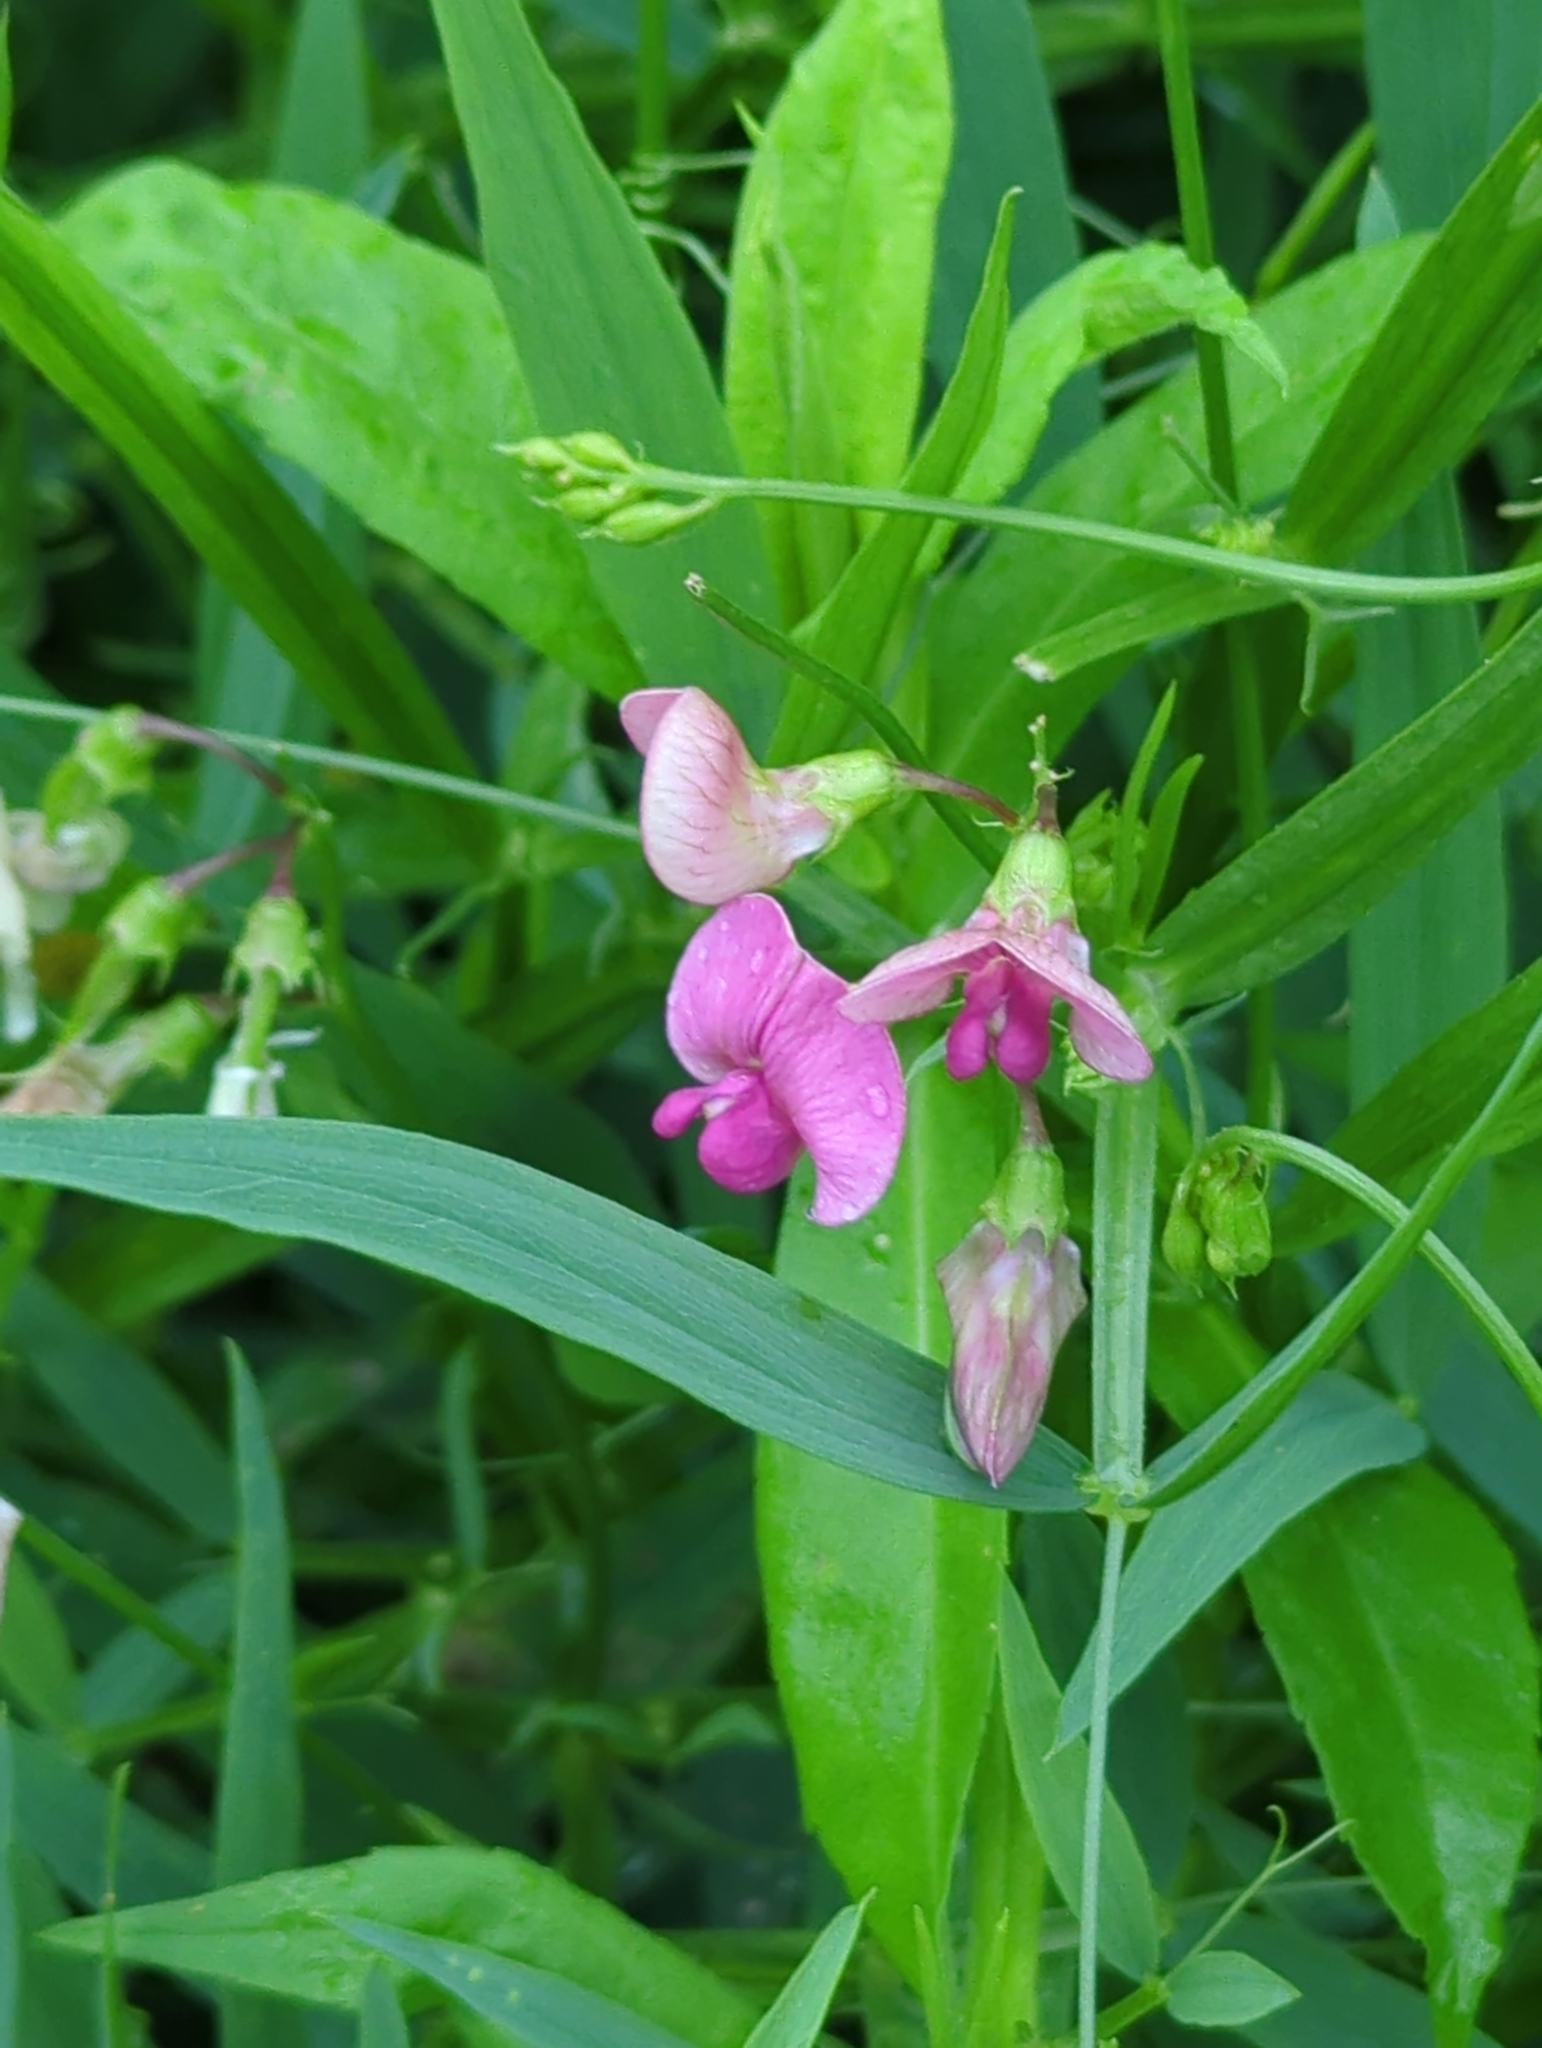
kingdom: Plantae
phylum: Tracheophyta
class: Magnoliopsida
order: Fabales
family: Fabaceae
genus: Lathyrus
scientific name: Lathyrus sylvestris
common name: Flat pea
